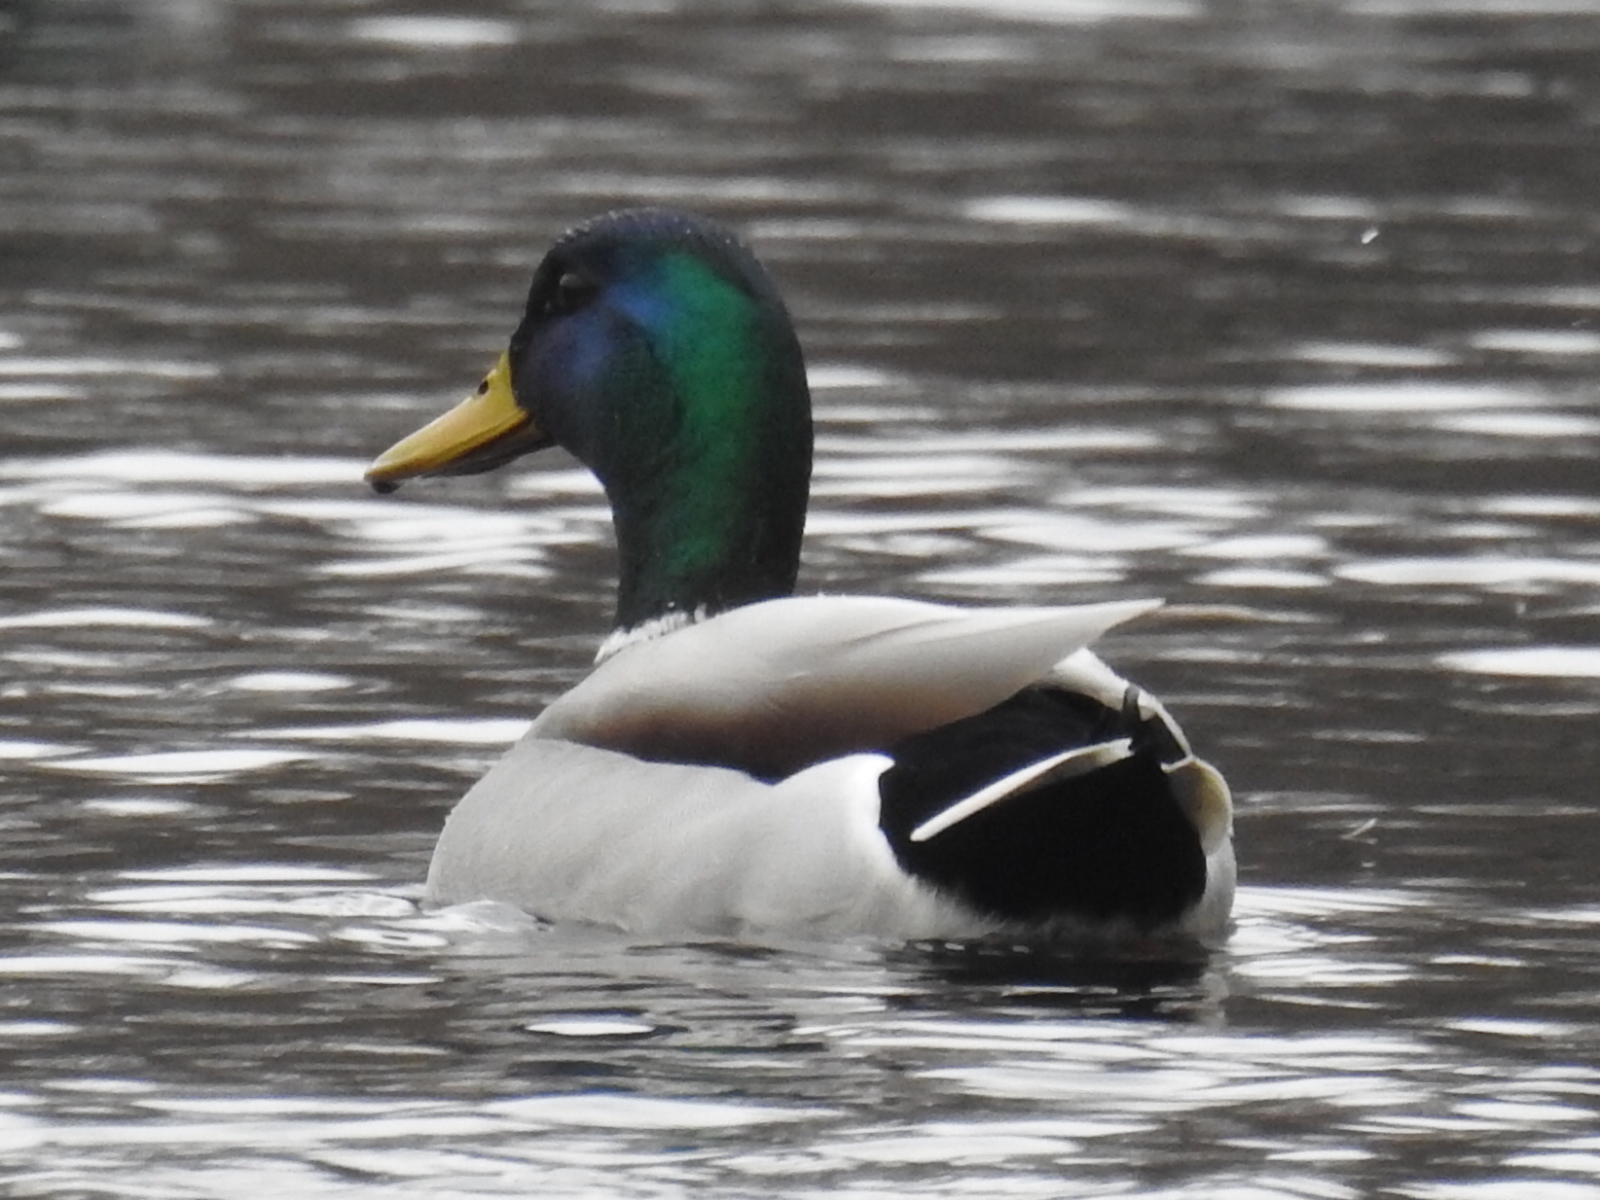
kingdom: Animalia
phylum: Chordata
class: Aves
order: Anseriformes
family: Anatidae
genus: Anas
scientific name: Anas platyrhynchos
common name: Mallard
